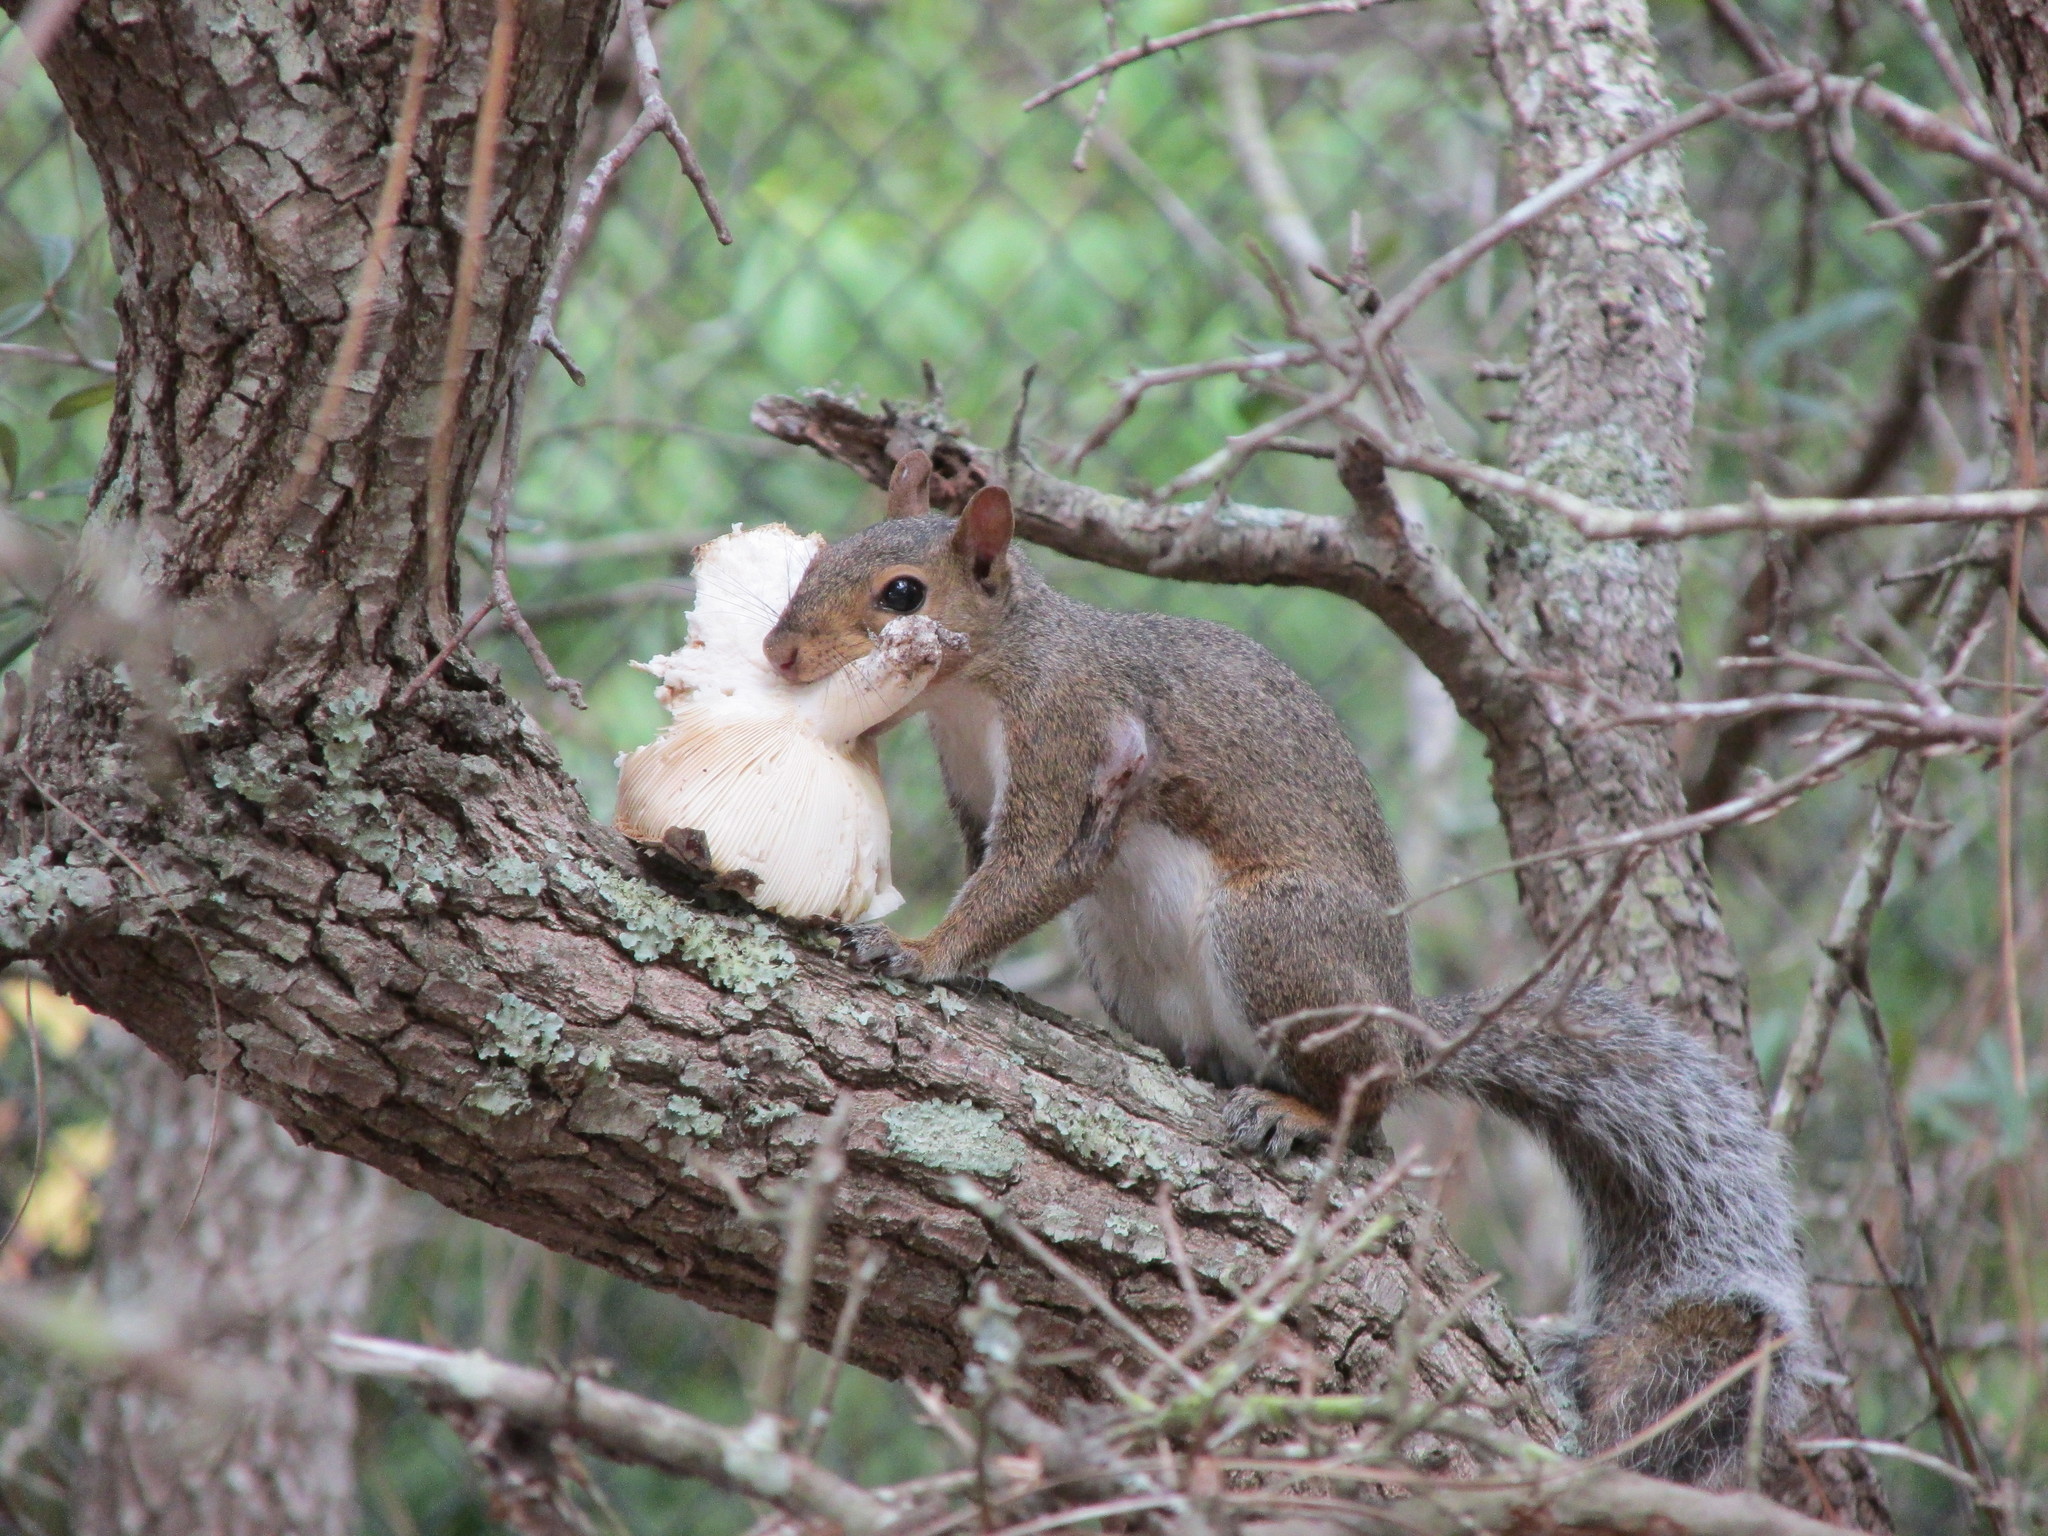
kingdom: Animalia
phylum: Chordata
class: Mammalia
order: Rodentia
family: Sciuridae
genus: Sciurus
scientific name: Sciurus carolinensis
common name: Eastern gray squirrel
